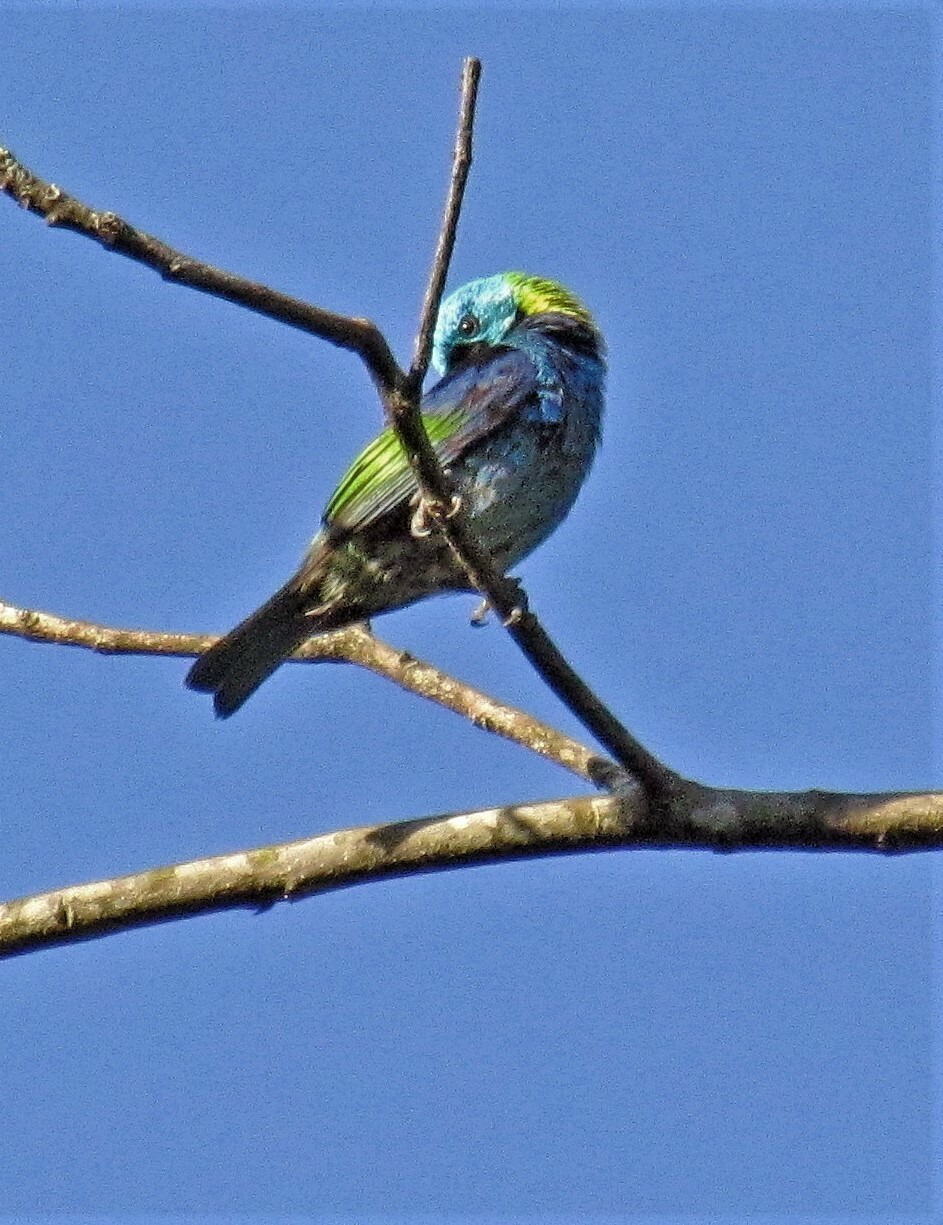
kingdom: Animalia
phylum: Chordata
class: Aves
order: Passeriformes
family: Thraupidae
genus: Tangara
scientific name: Tangara seledon
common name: Green-headed tanager
